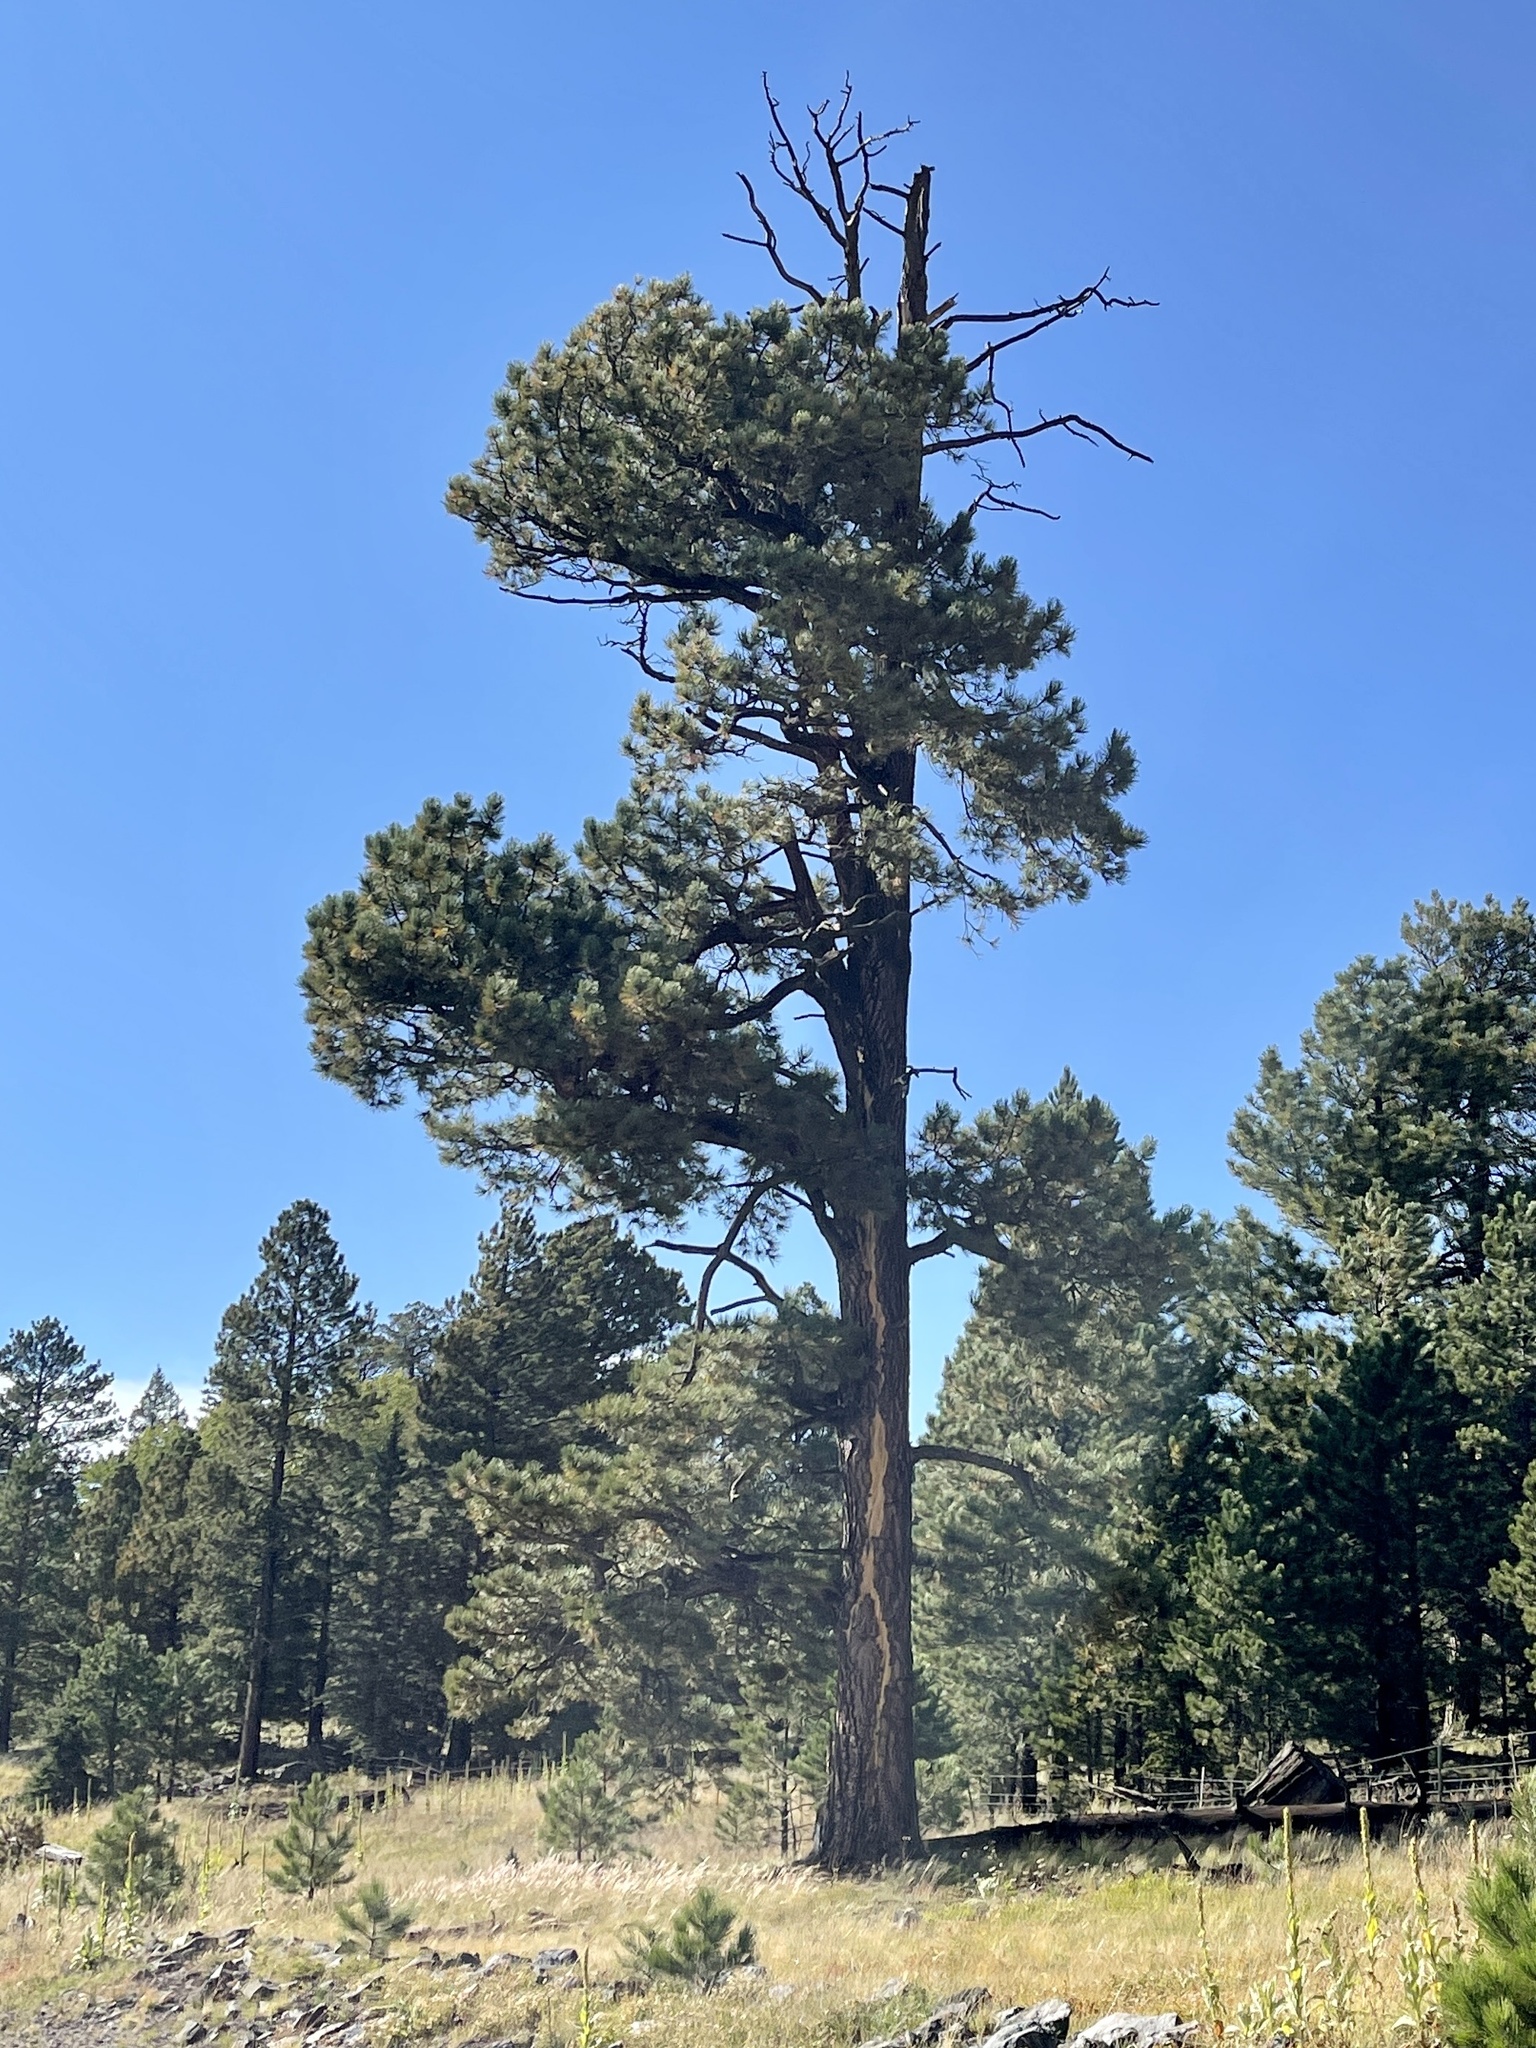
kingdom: Plantae
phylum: Tracheophyta
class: Pinopsida
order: Pinales
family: Pinaceae
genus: Pinus
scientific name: Pinus ponderosa
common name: Western yellow-pine
